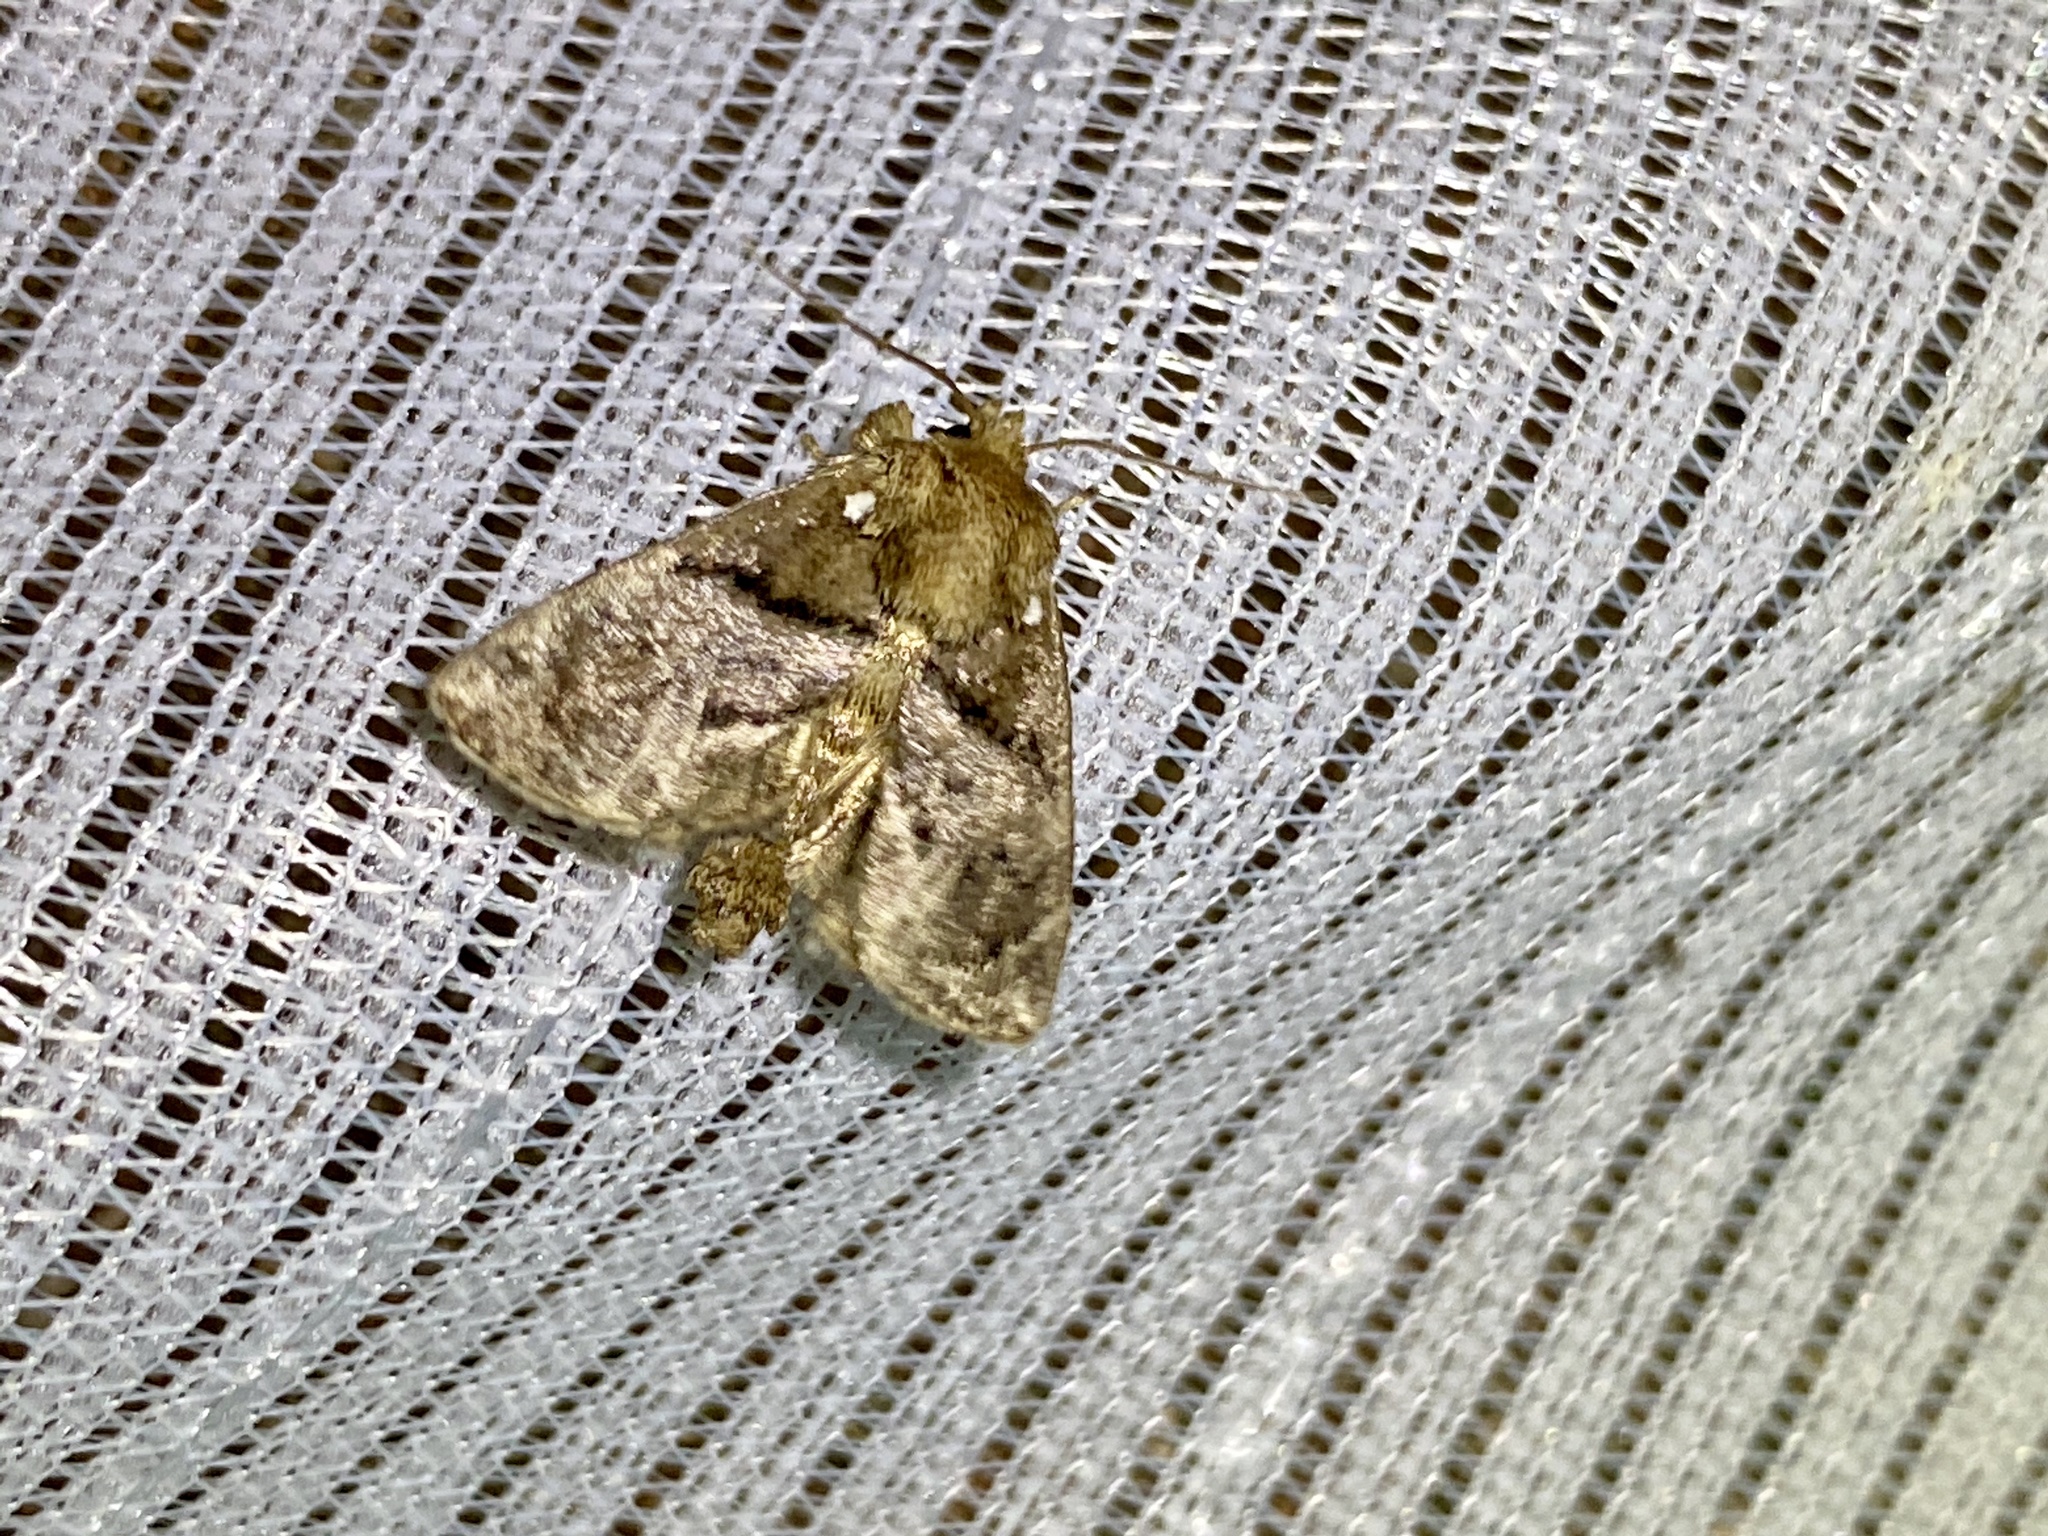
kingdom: Animalia
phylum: Arthropoda
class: Insecta
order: Lepidoptera
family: Limacodidae
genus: Austrapoda
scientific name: Austrapoda dentatus
